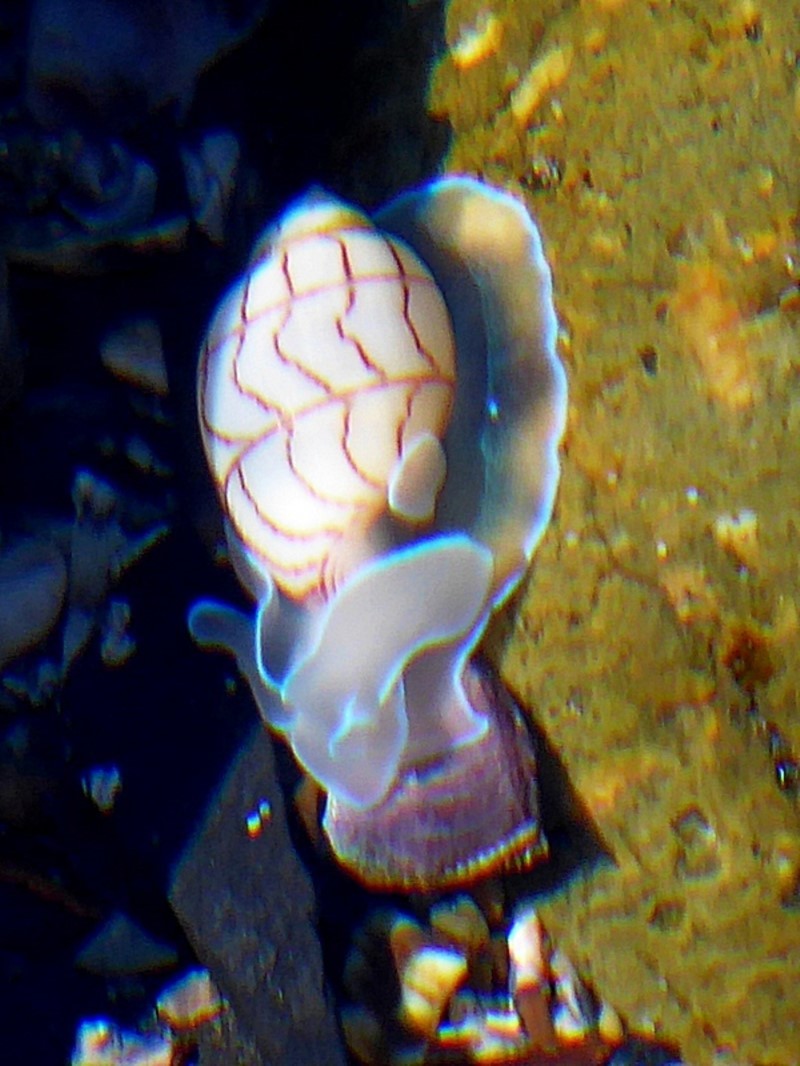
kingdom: Animalia
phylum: Mollusca
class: Gastropoda
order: Cephalaspidea
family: Aplustridae
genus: Bullina
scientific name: Bullina lineata
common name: Lined bubble snail
